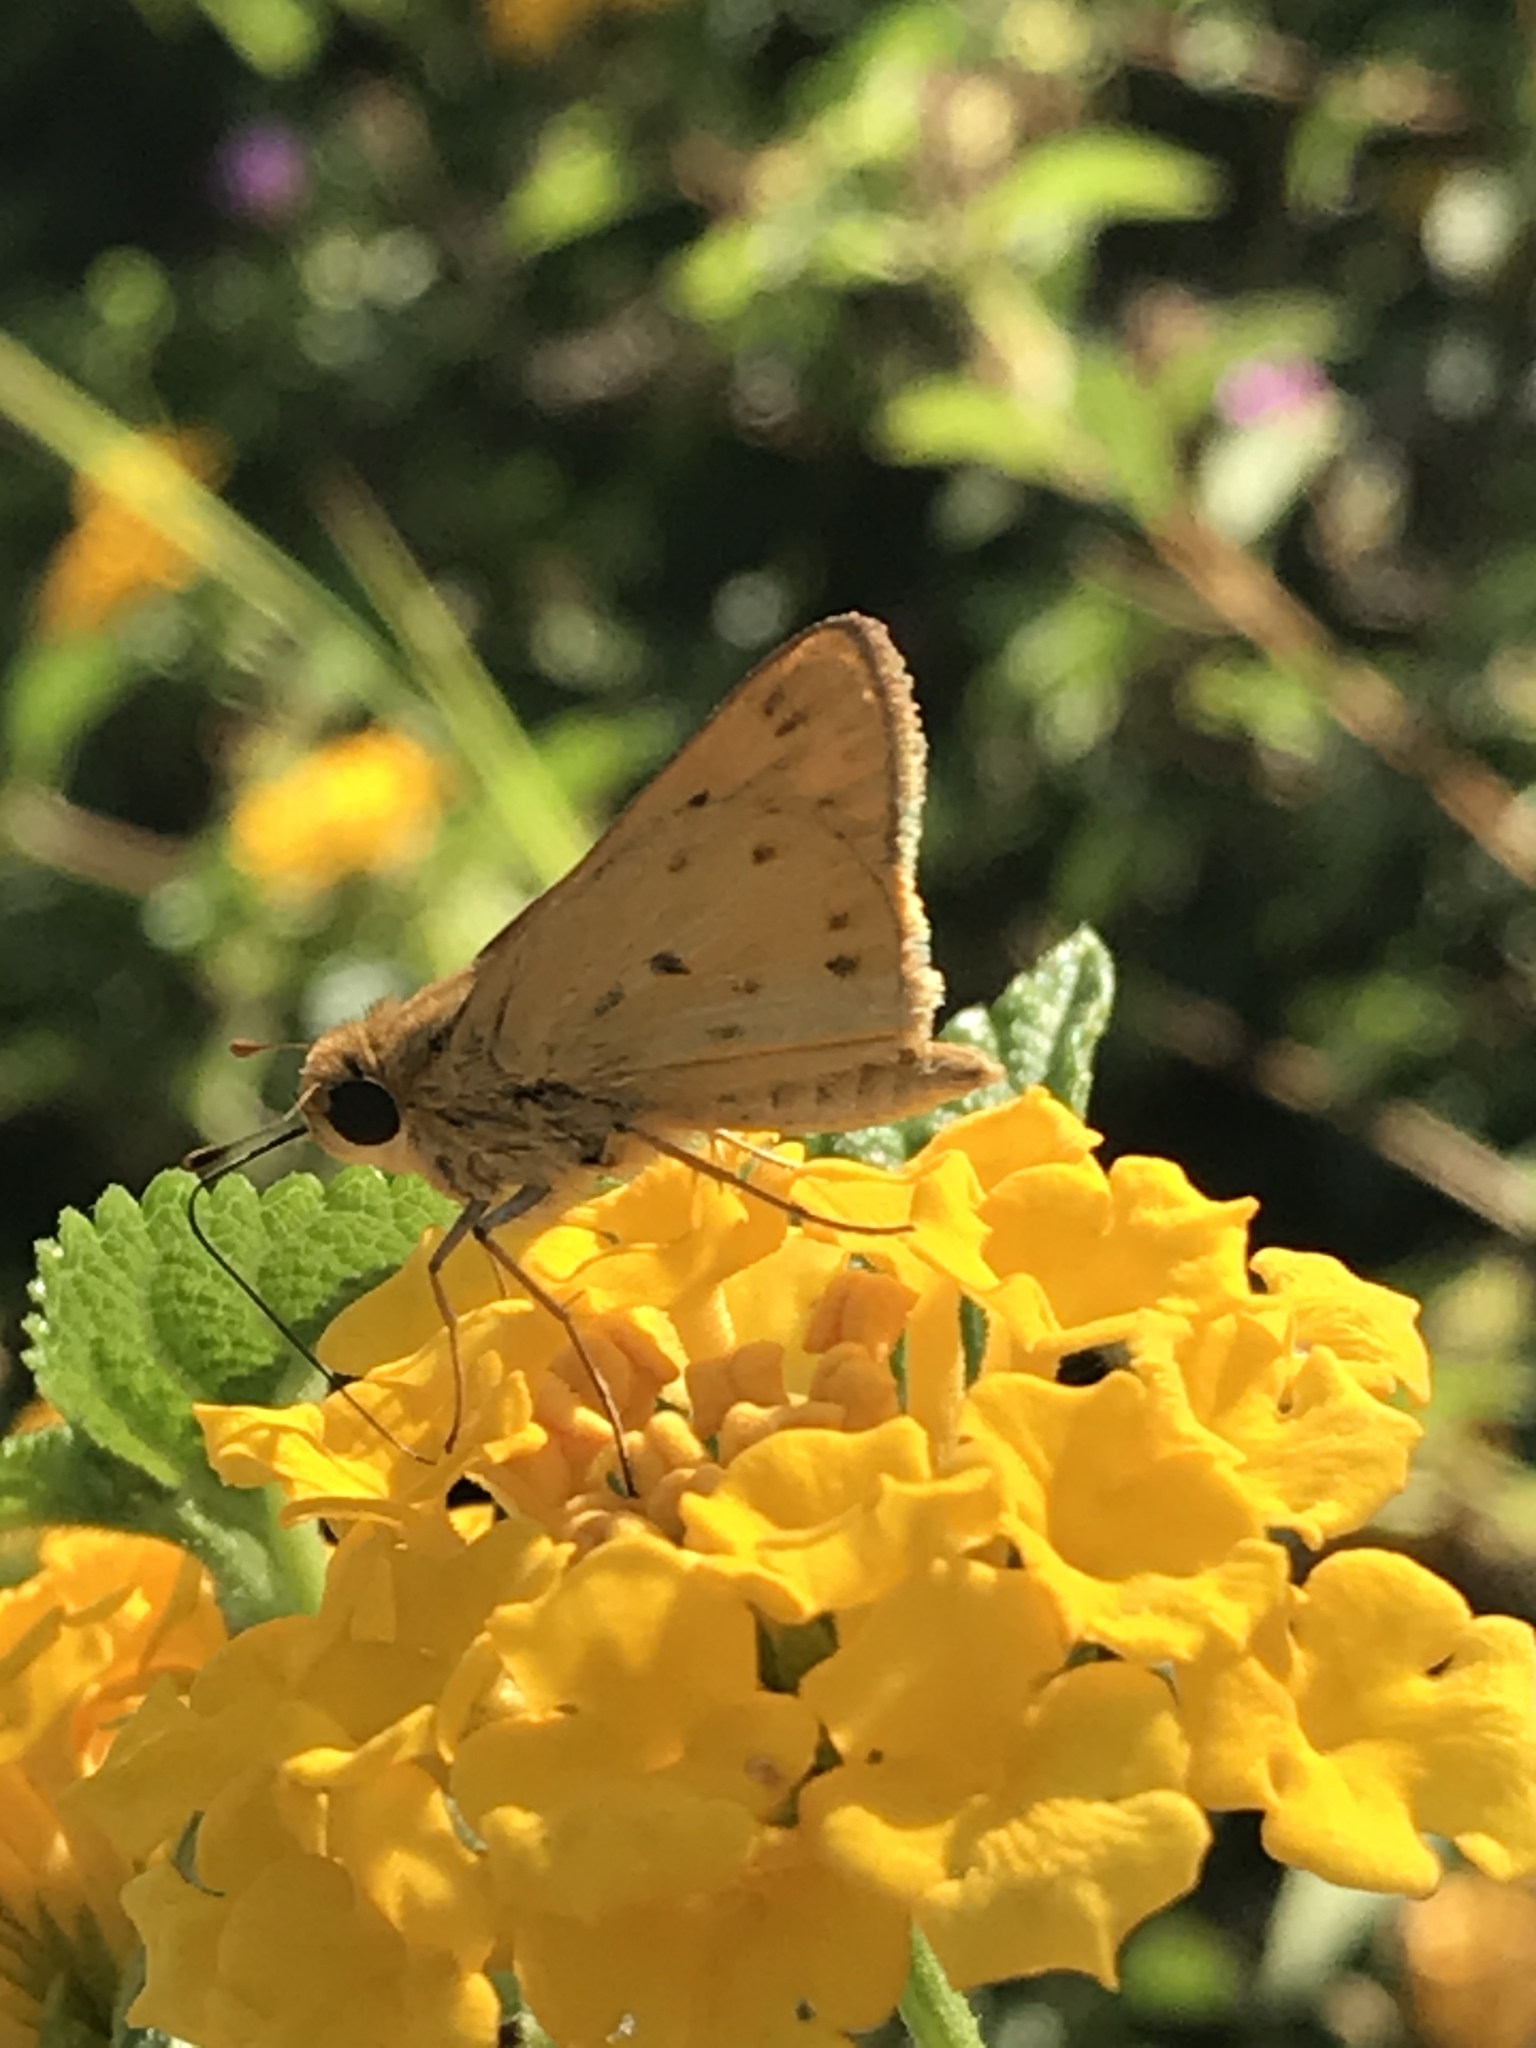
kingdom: Animalia
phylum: Arthropoda
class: Insecta
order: Lepidoptera
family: Hesperiidae
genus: Hylephila
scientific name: Hylephila phyleus
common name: Fiery skipper
